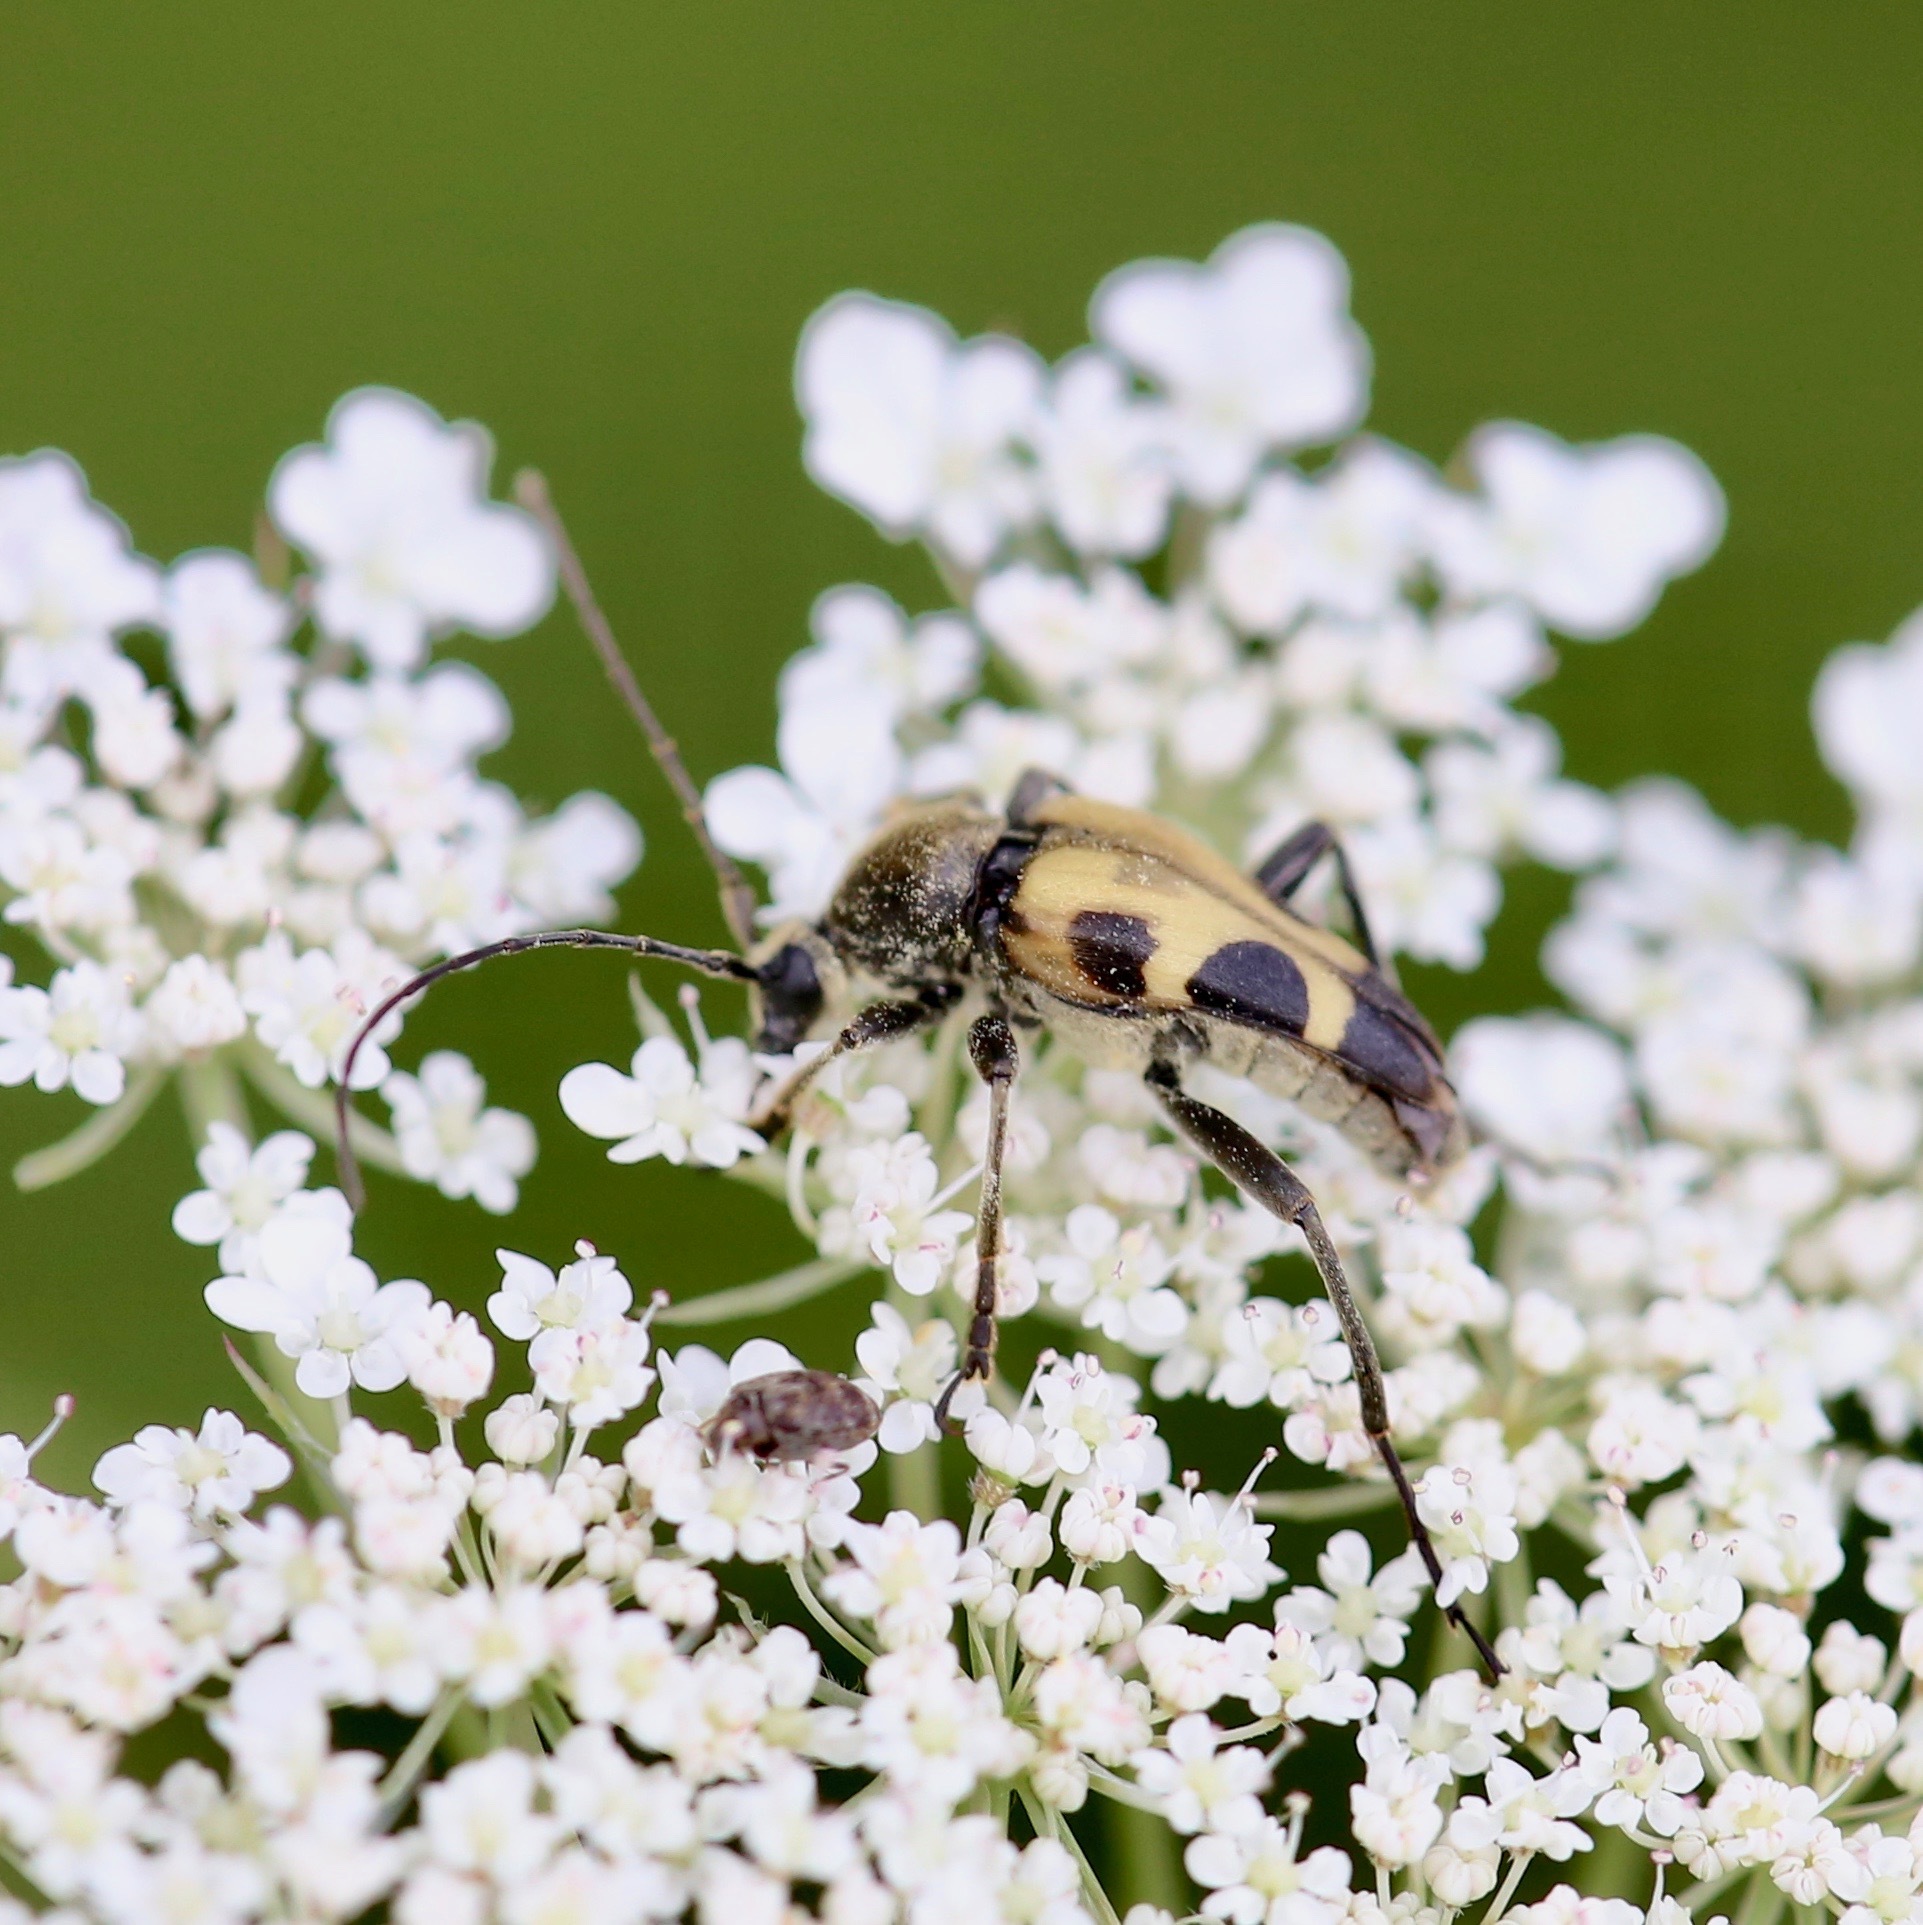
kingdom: Animalia
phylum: Arthropoda
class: Insecta
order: Coleoptera
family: Cerambycidae
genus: Judolia
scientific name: Judolia cordifera
